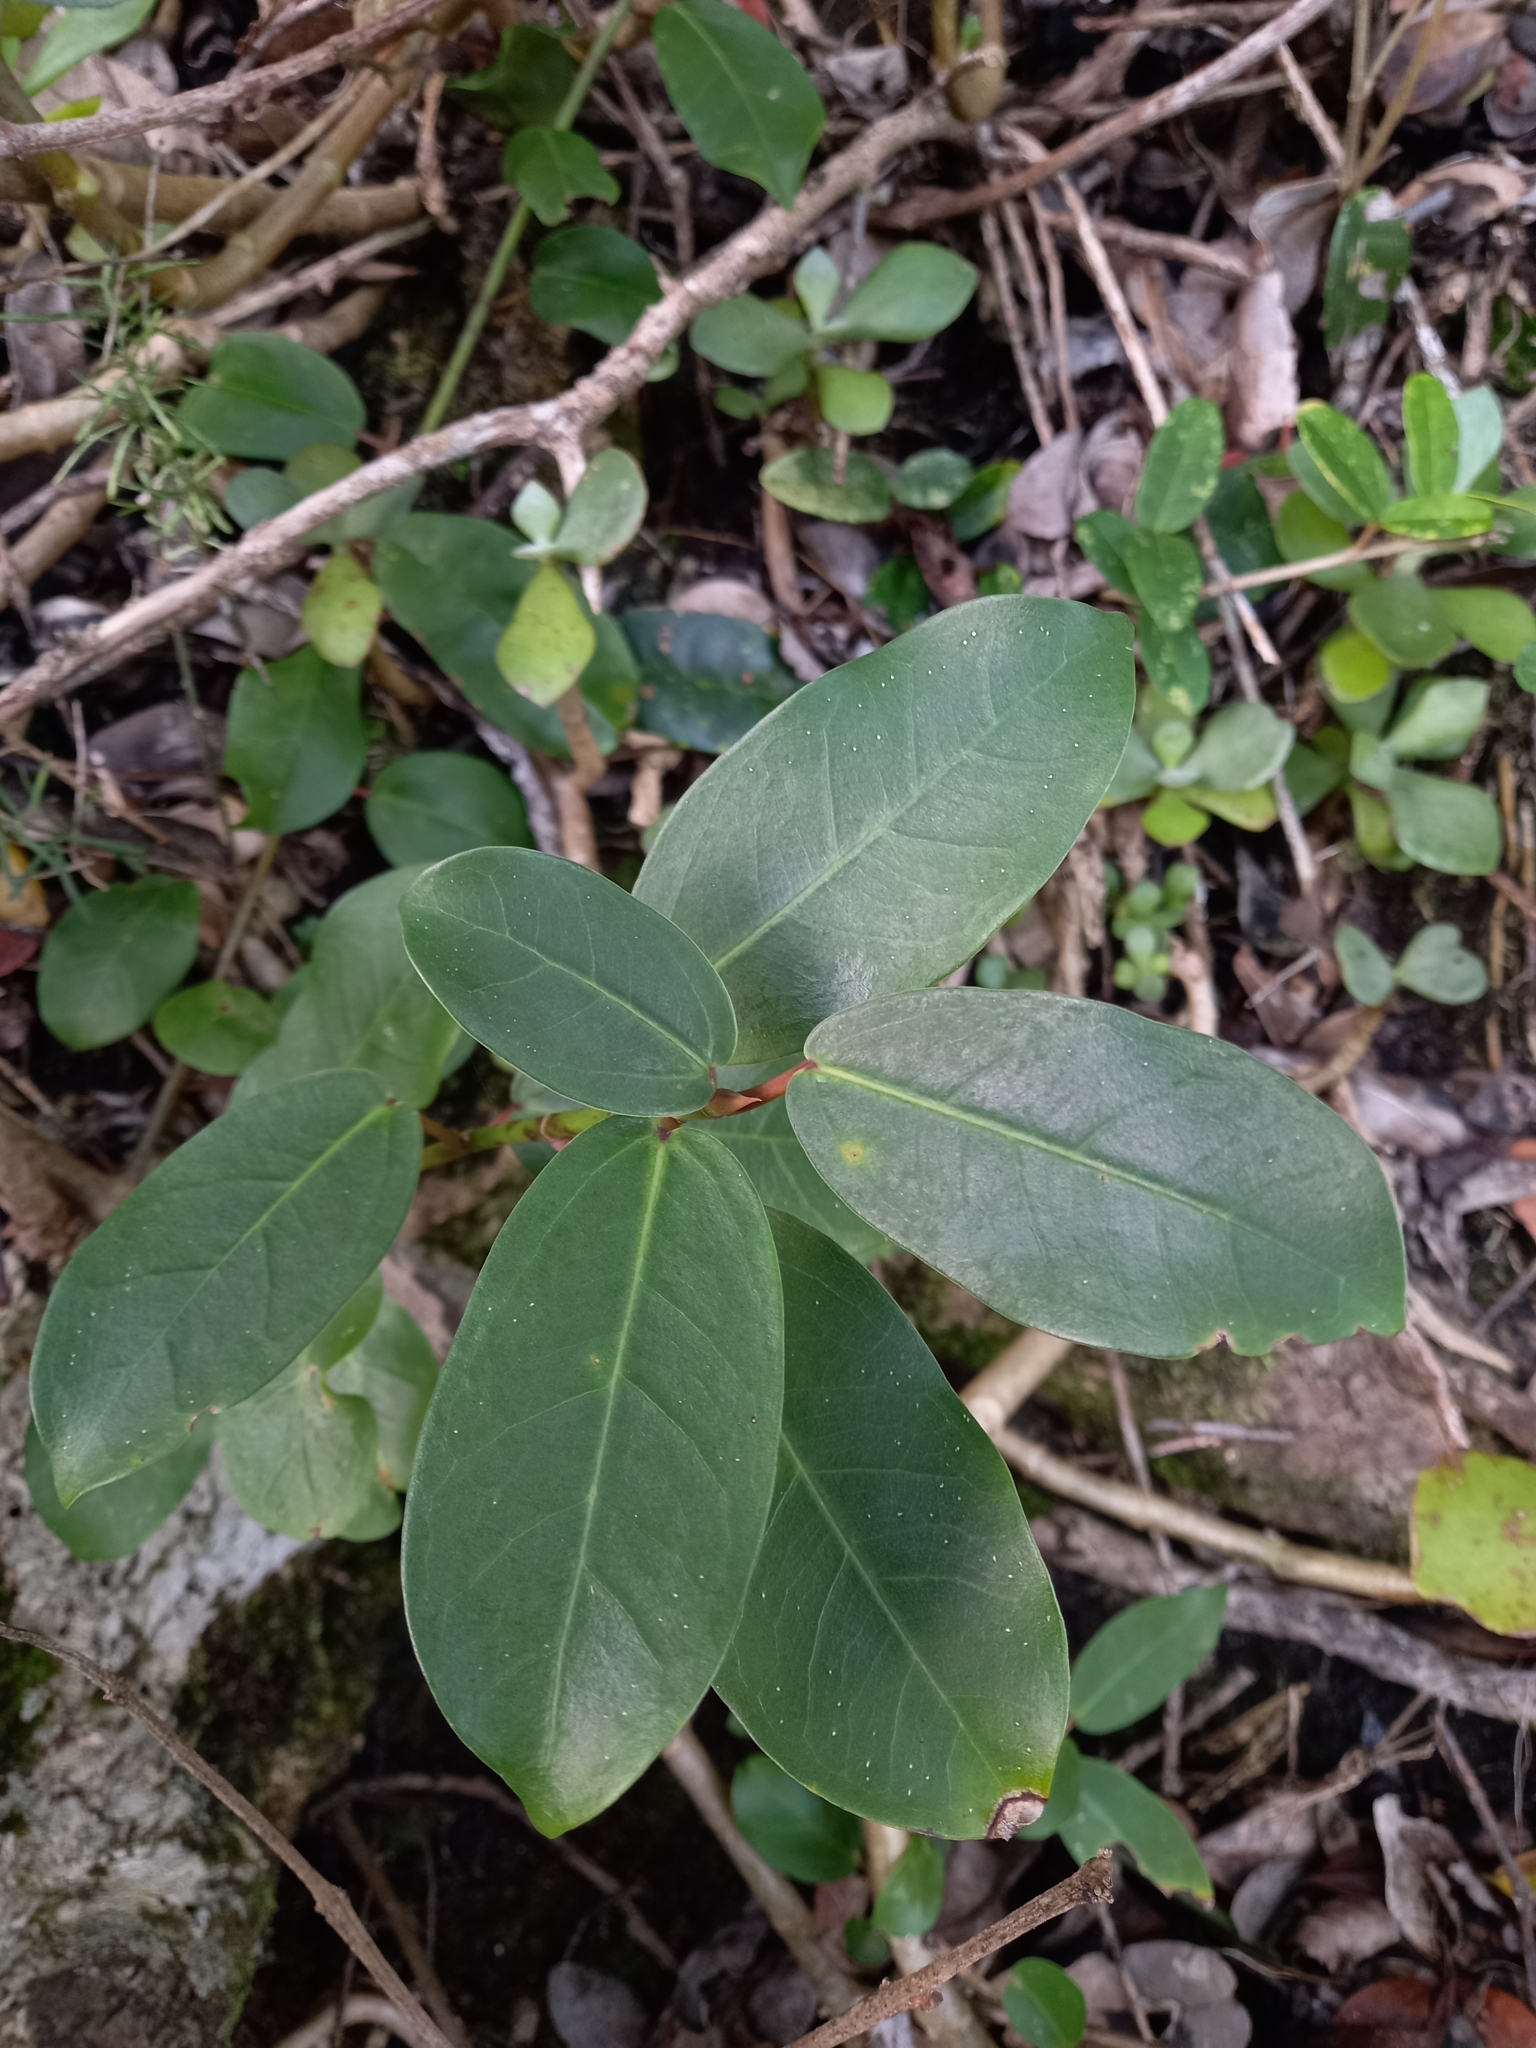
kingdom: Plantae
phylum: Tracheophyta
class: Magnoliopsida
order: Rosales
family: Moraceae
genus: Ficus
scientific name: Ficus burtt-davyi
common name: Scrambling fig
